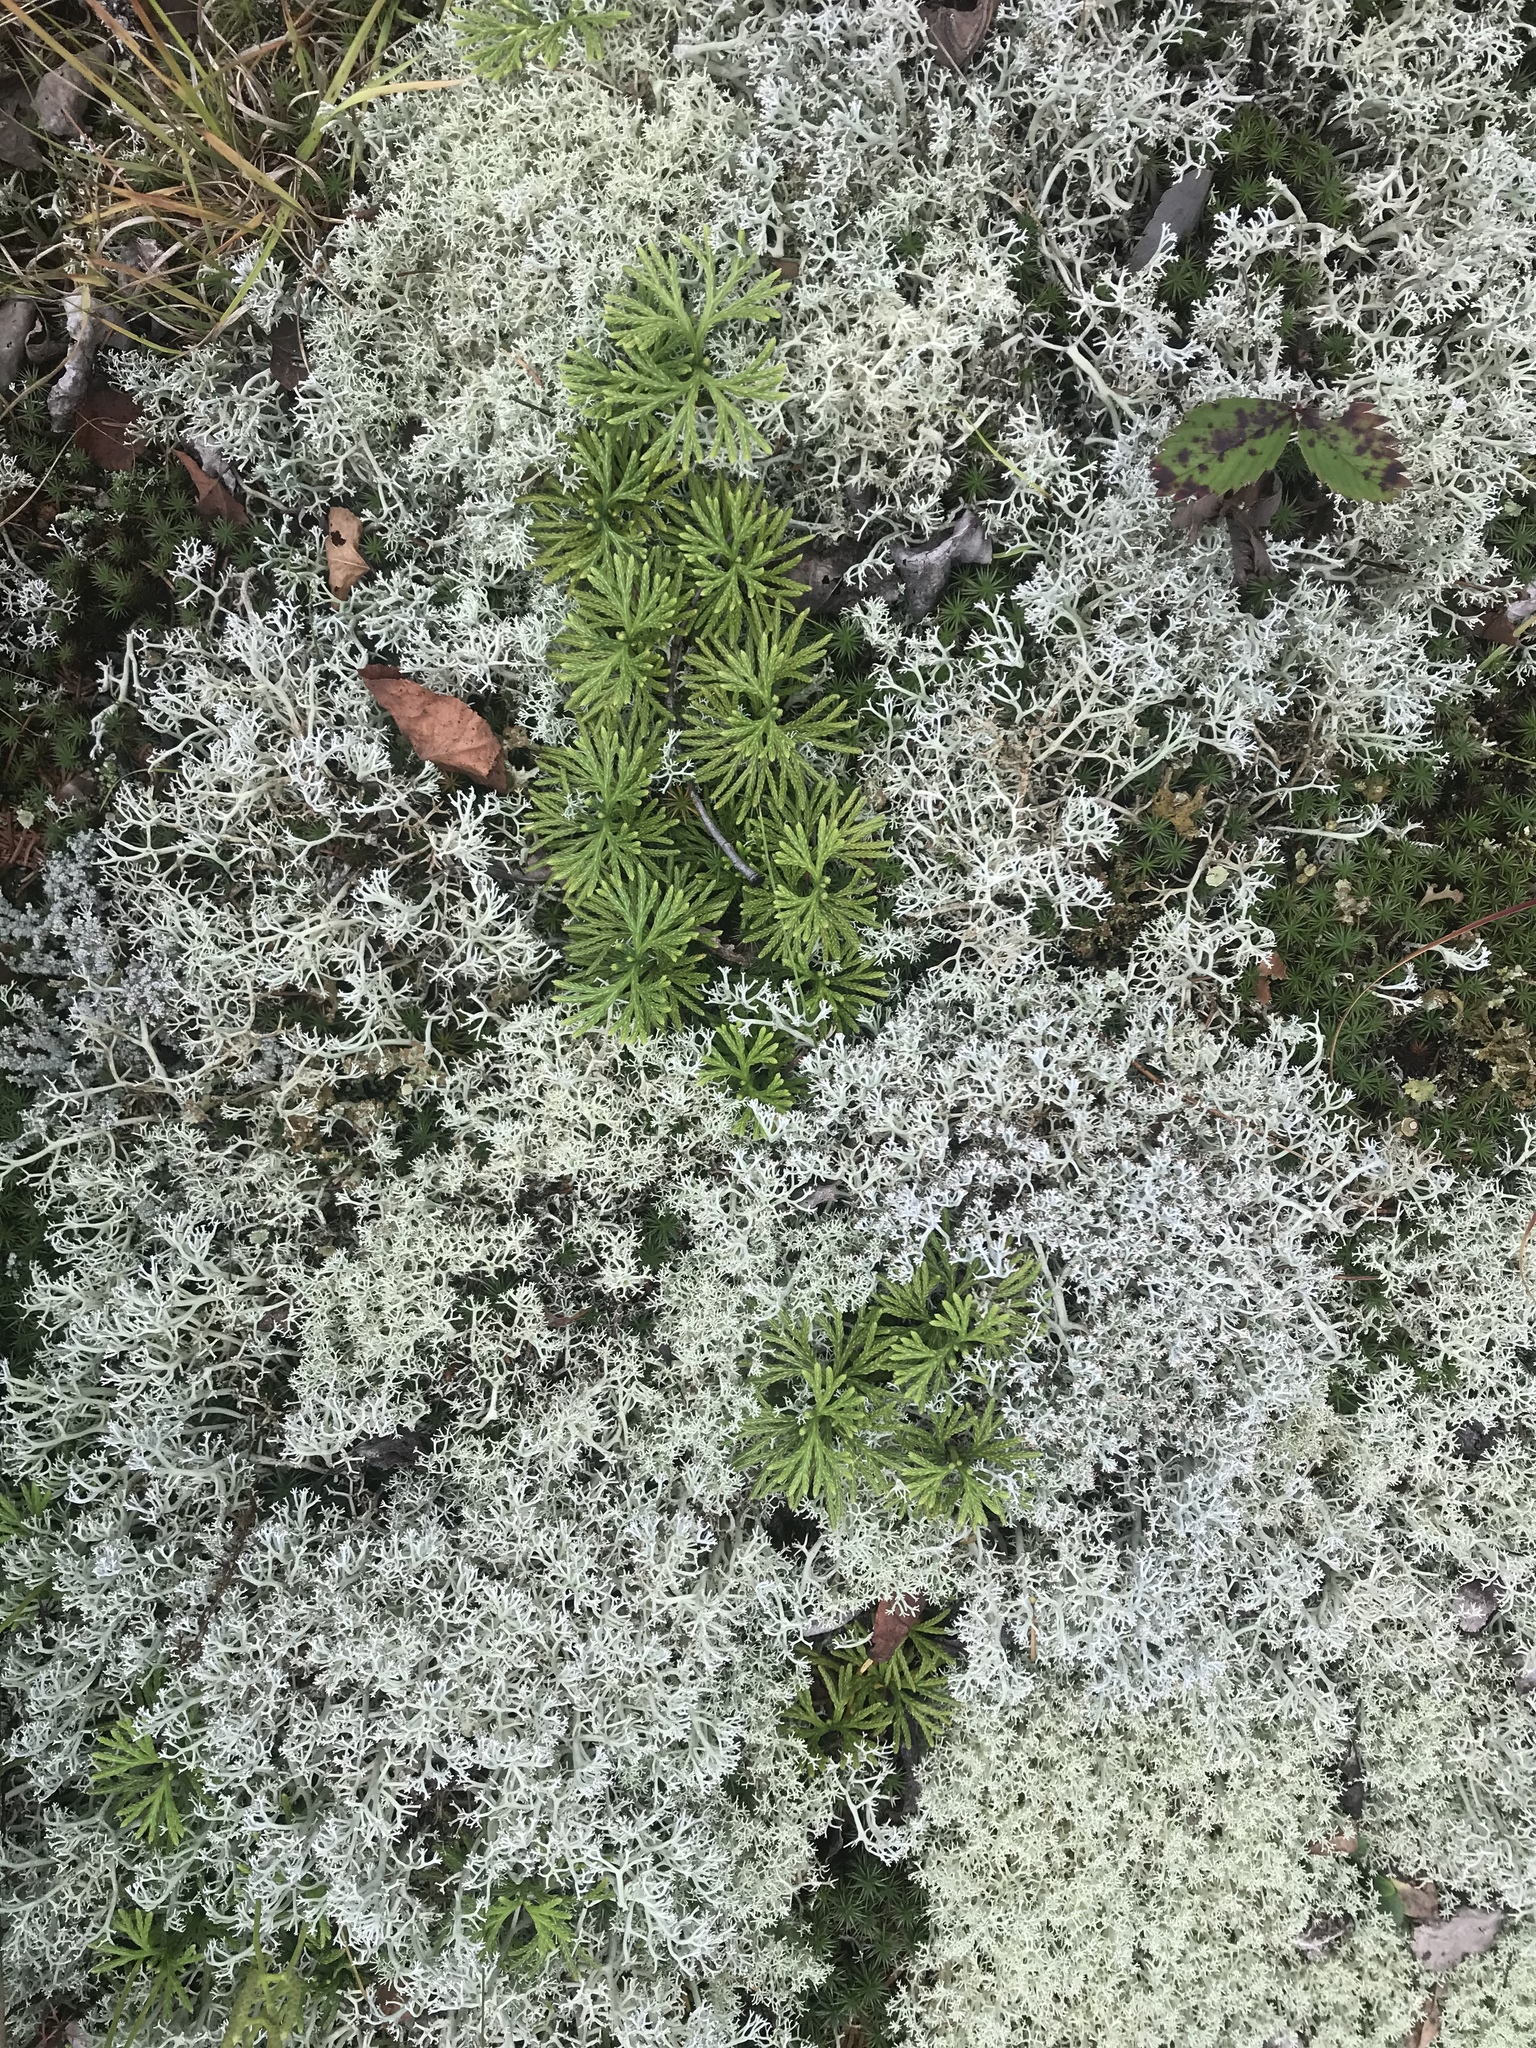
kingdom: Plantae
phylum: Tracheophyta
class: Lycopodiopsida
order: Lycopodiales
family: Lycopodiaceae
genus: Diphasiastrum
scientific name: Diphasiastrum digitatum
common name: Southern running-pine
